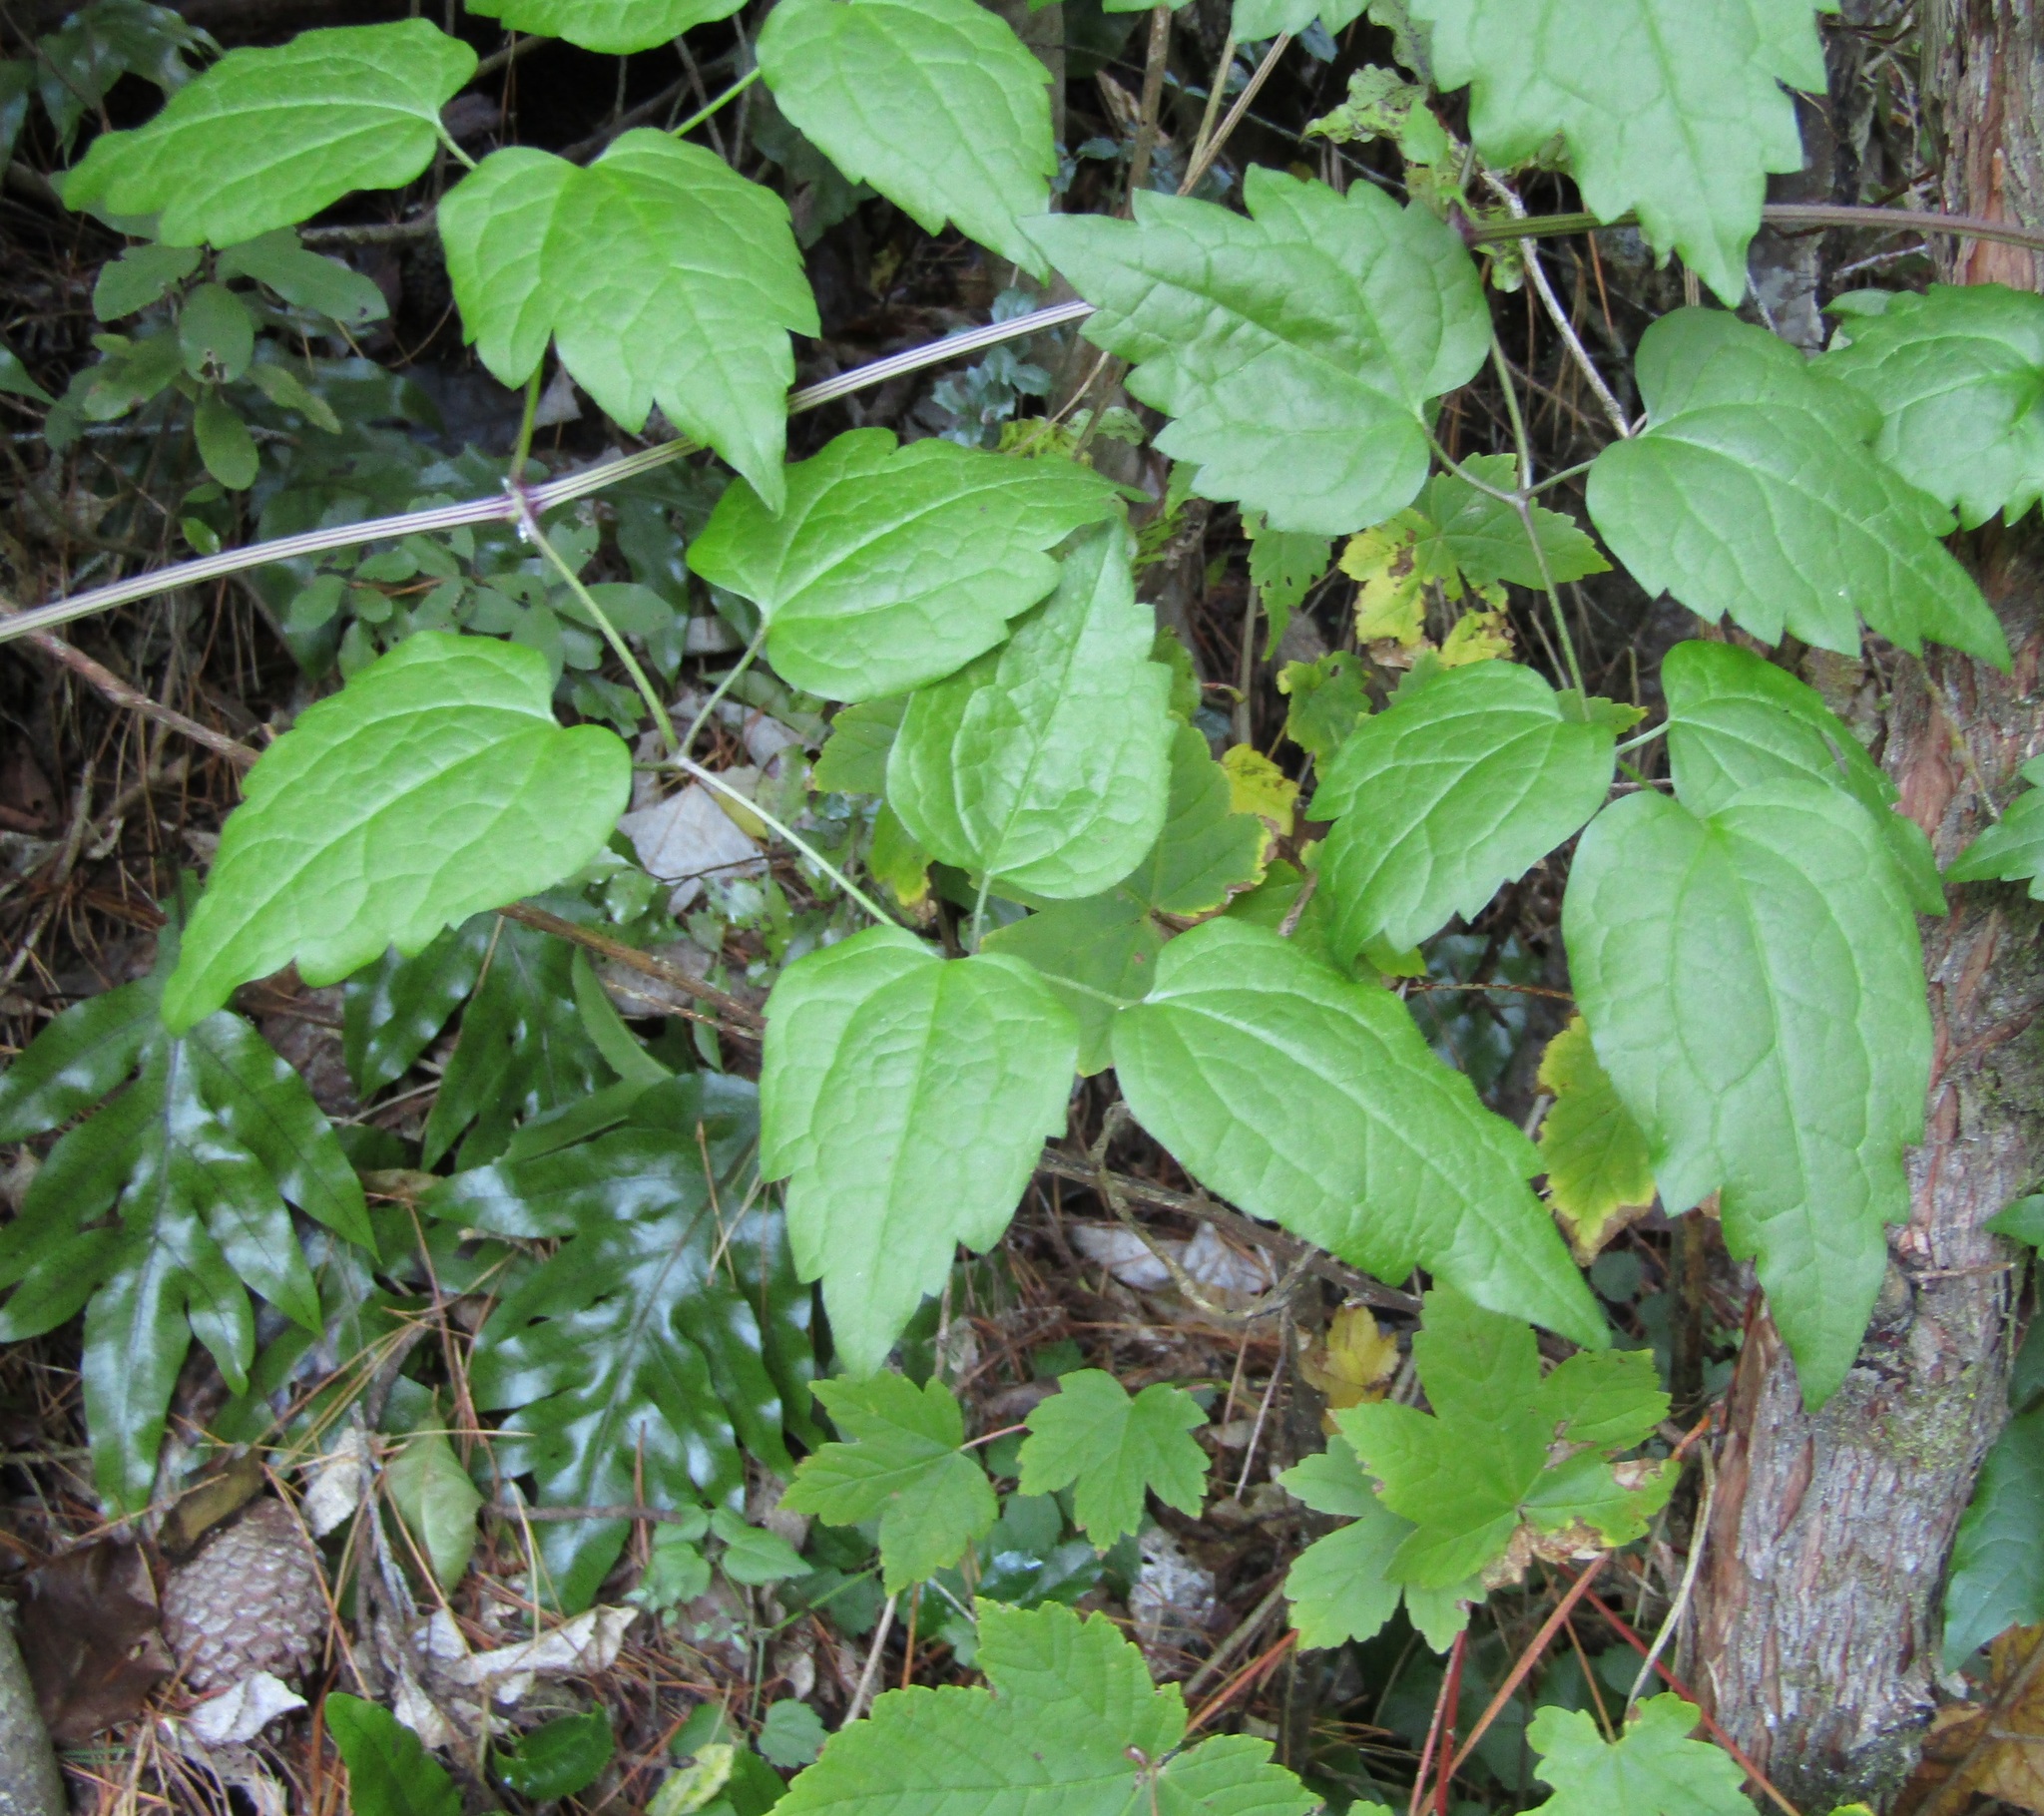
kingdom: Plantae
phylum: Tracheophyta
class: Magnoliopsida
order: Ranunculales
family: Ranunculaceae
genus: Clematis
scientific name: Clematis vitalba
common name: Evergreen clematis
